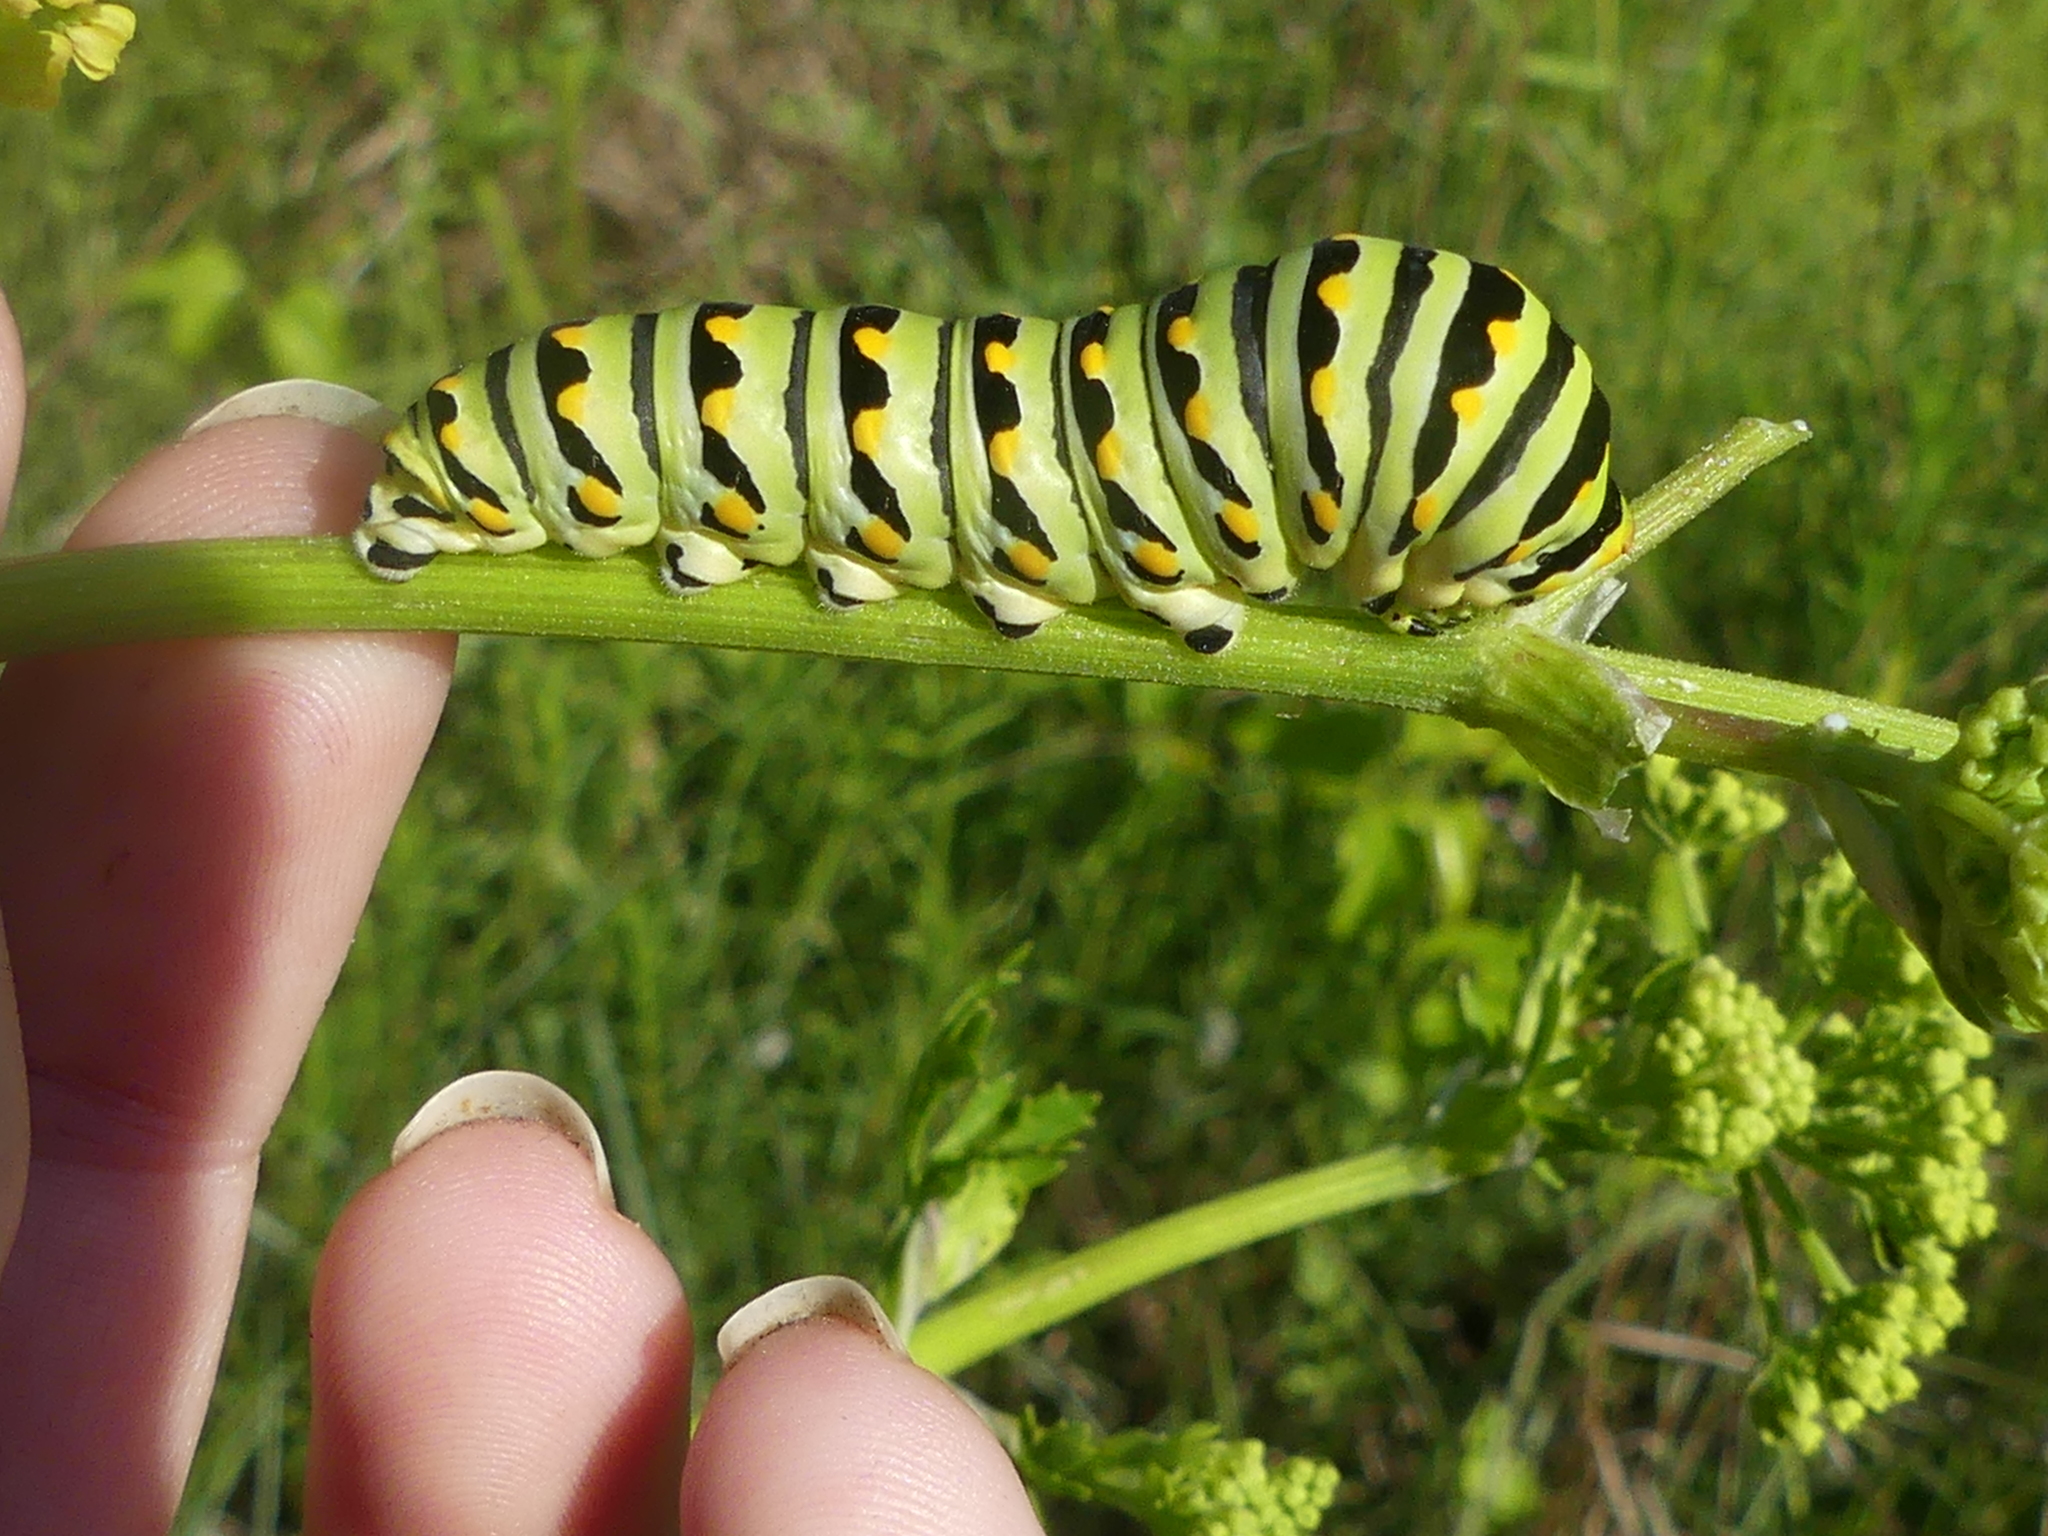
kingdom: Animalia
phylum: Arthropoda
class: Insecta
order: Lepidoptera
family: Papilionidae
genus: Papilio
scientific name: Papilio polyxenes
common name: Black swallowtail
